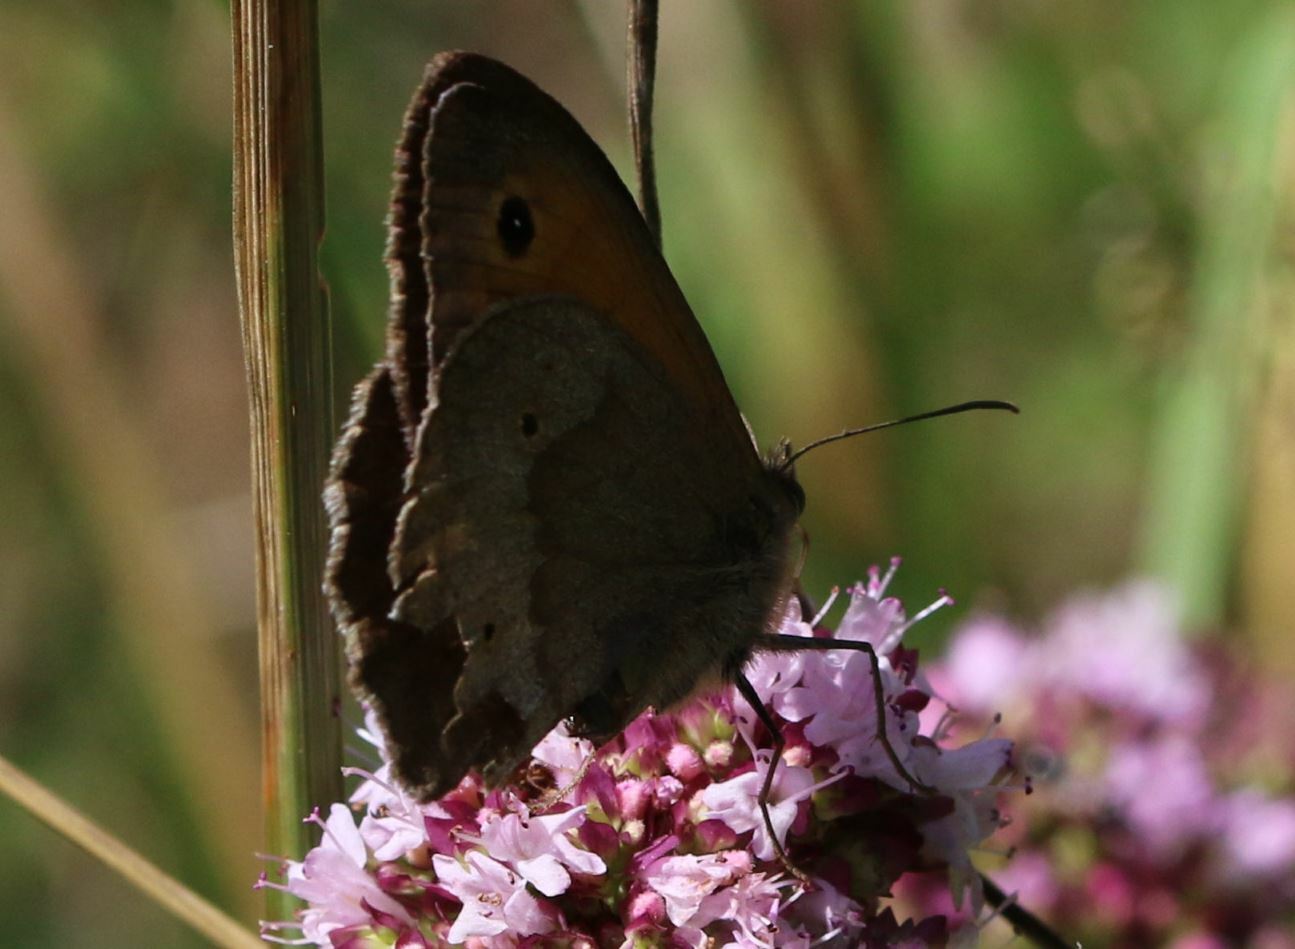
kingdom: Animalia
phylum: Arthropoda
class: Insecta
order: Lepidoptera
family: Nymphalidae
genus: Maniola
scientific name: Maniola jurtina
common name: Meadow brown
